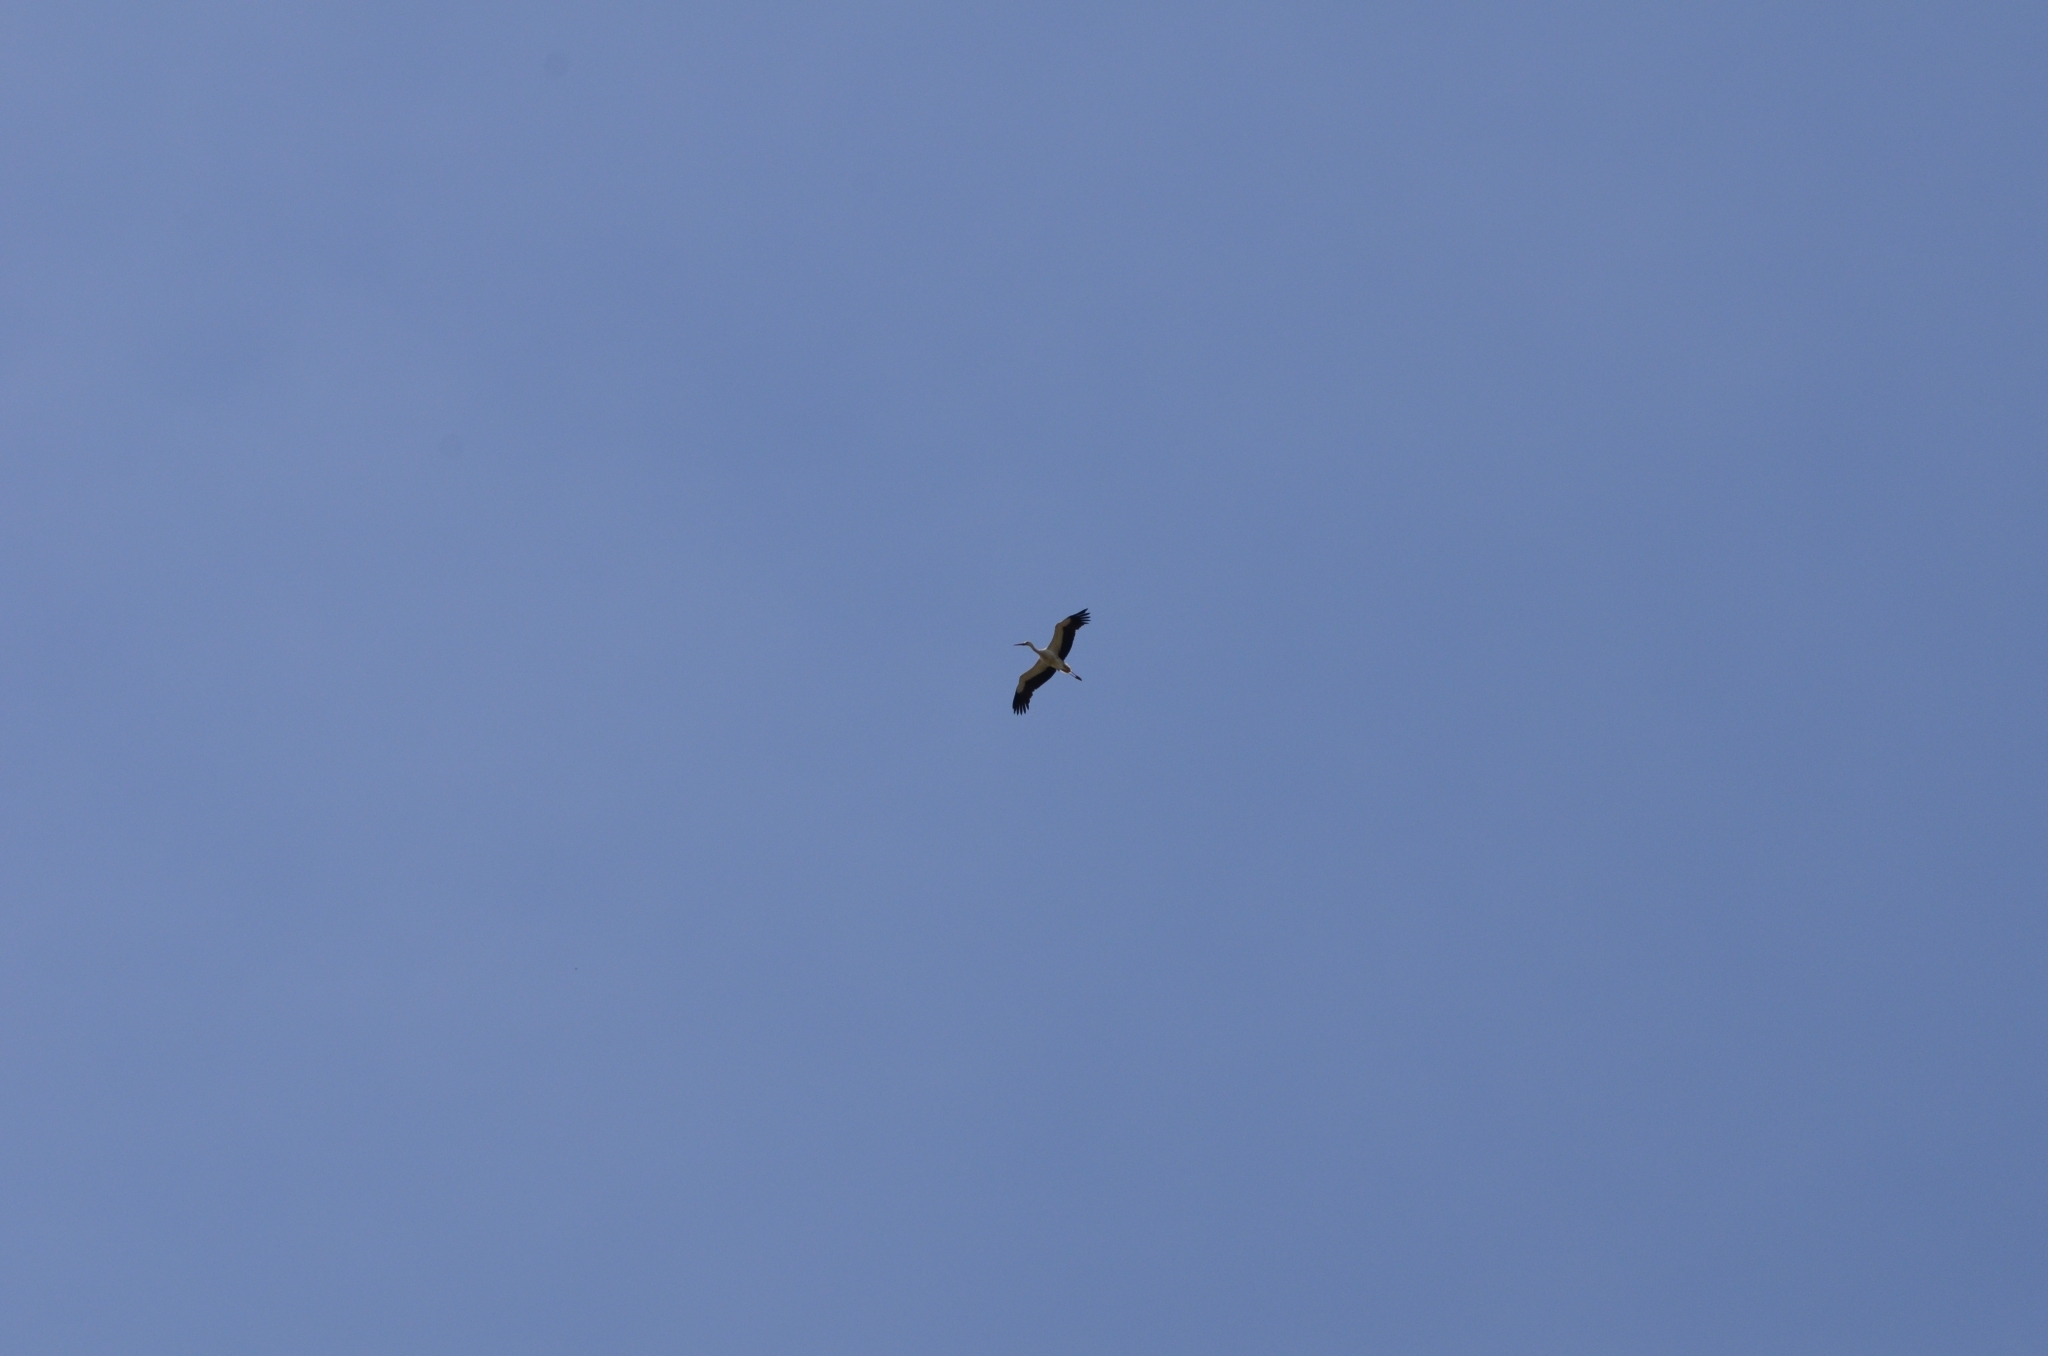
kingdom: Animalia
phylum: Chordata
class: Aves
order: Ciconiiformes
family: Ciconiidae
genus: Ciconia
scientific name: Ciconia ciconia
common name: White stork
